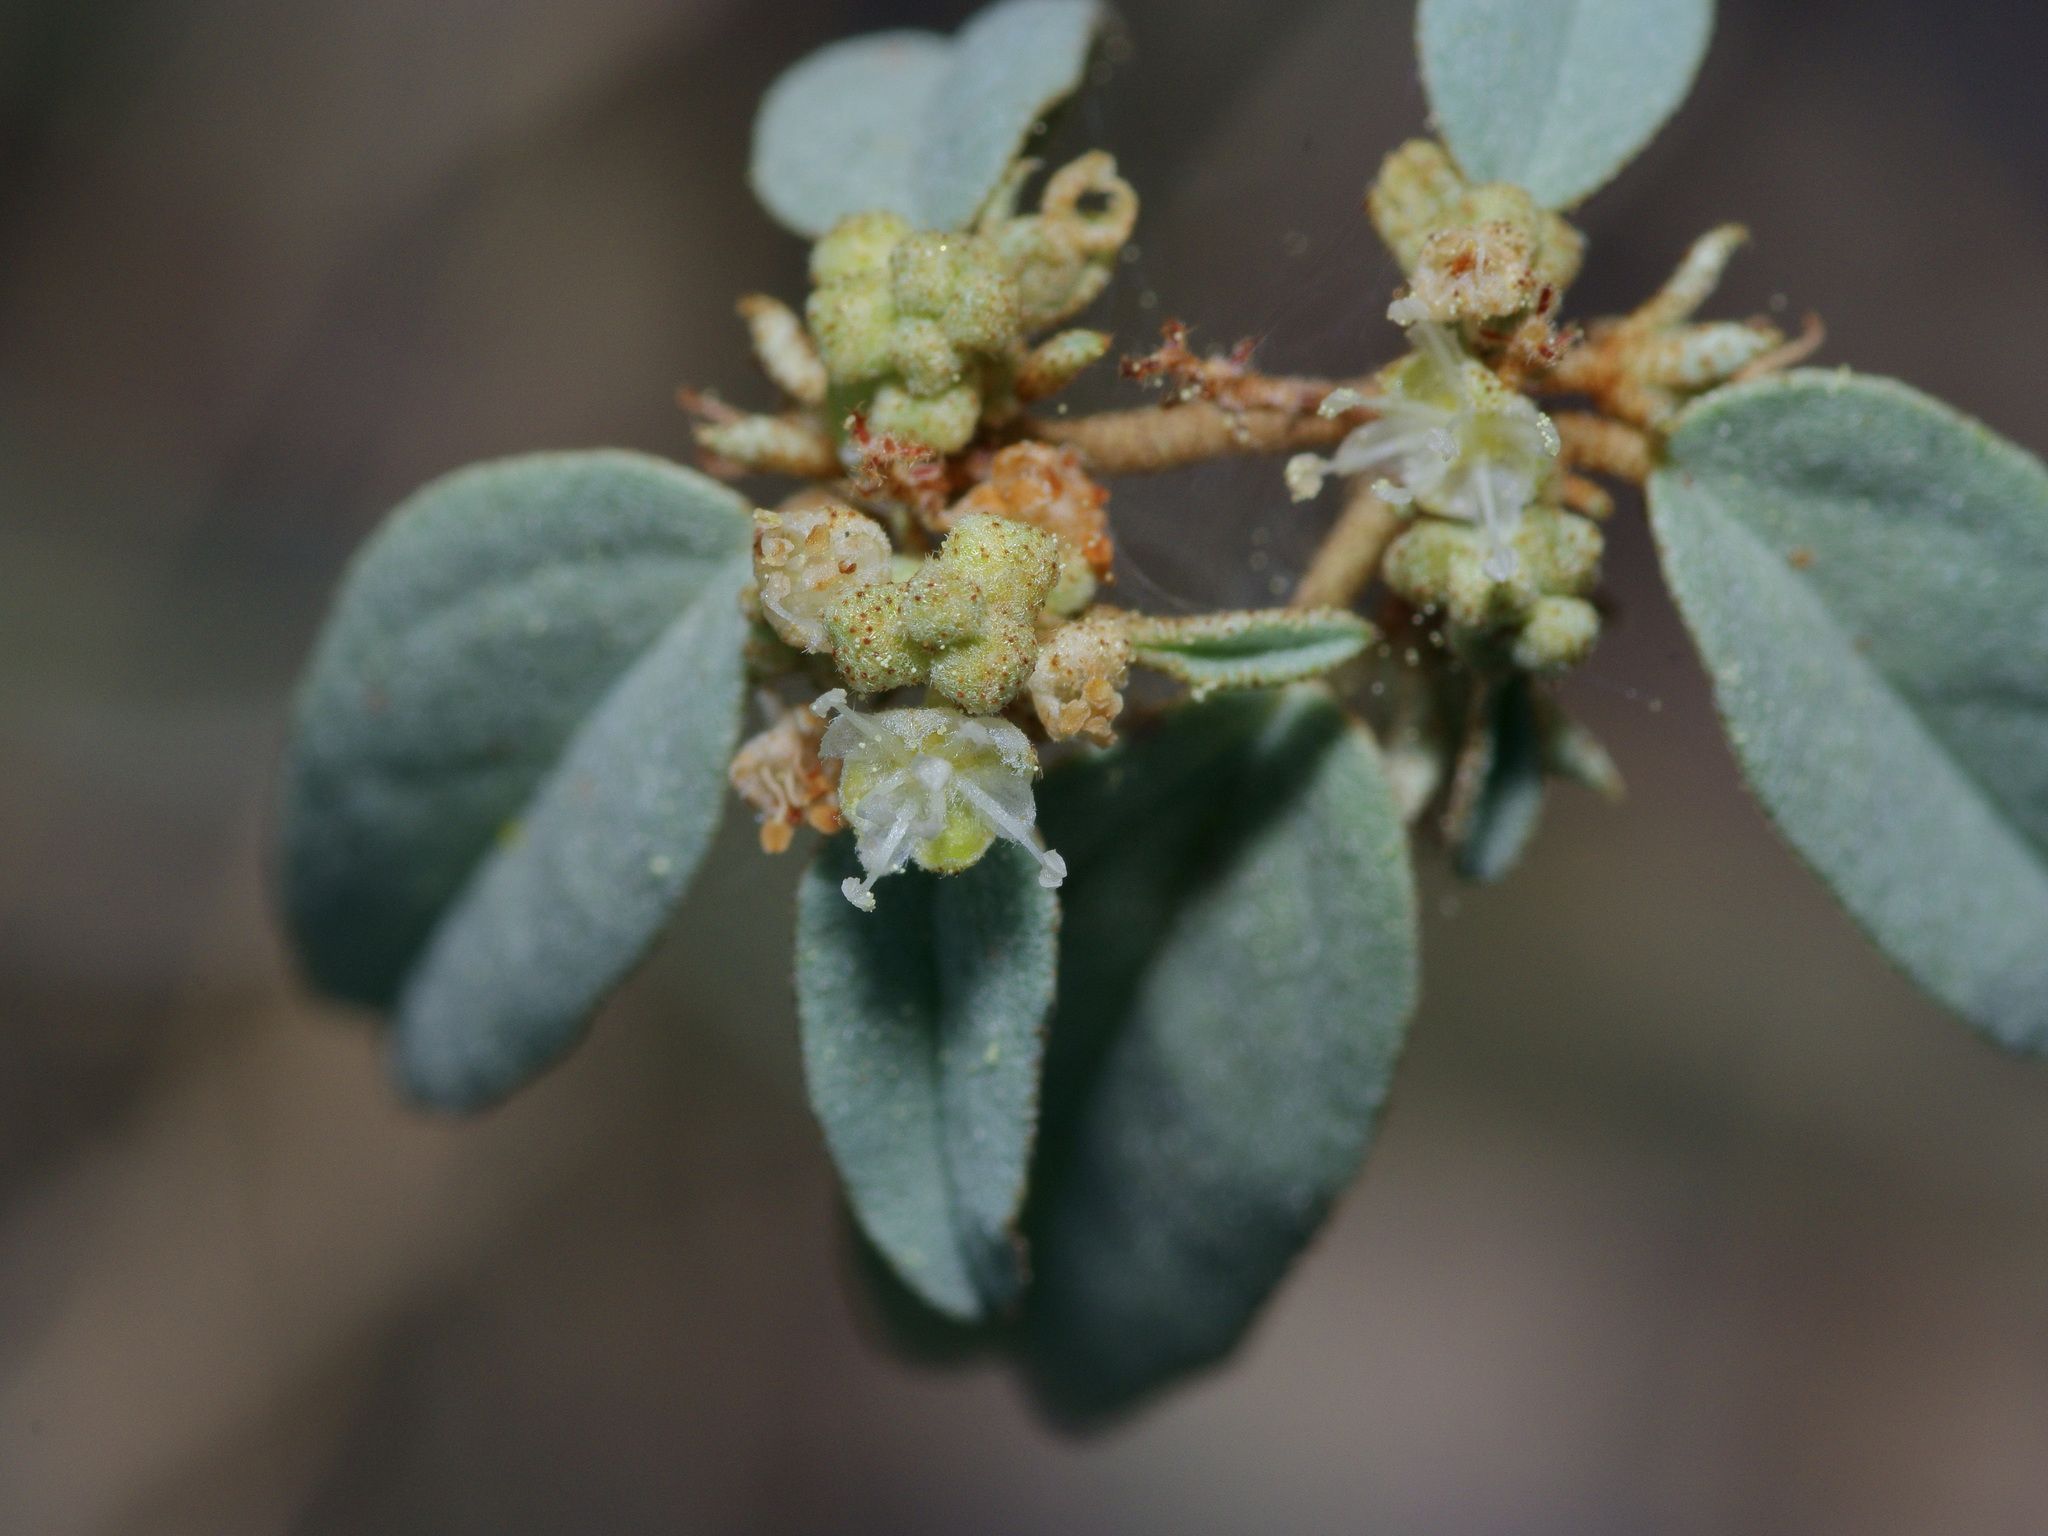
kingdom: Plantae
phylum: Tracheophyta
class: Magnoliopsida
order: Malpighiales
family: Euphorbiaceae
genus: Croton
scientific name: Croton monanthogynus
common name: One-seed croton
